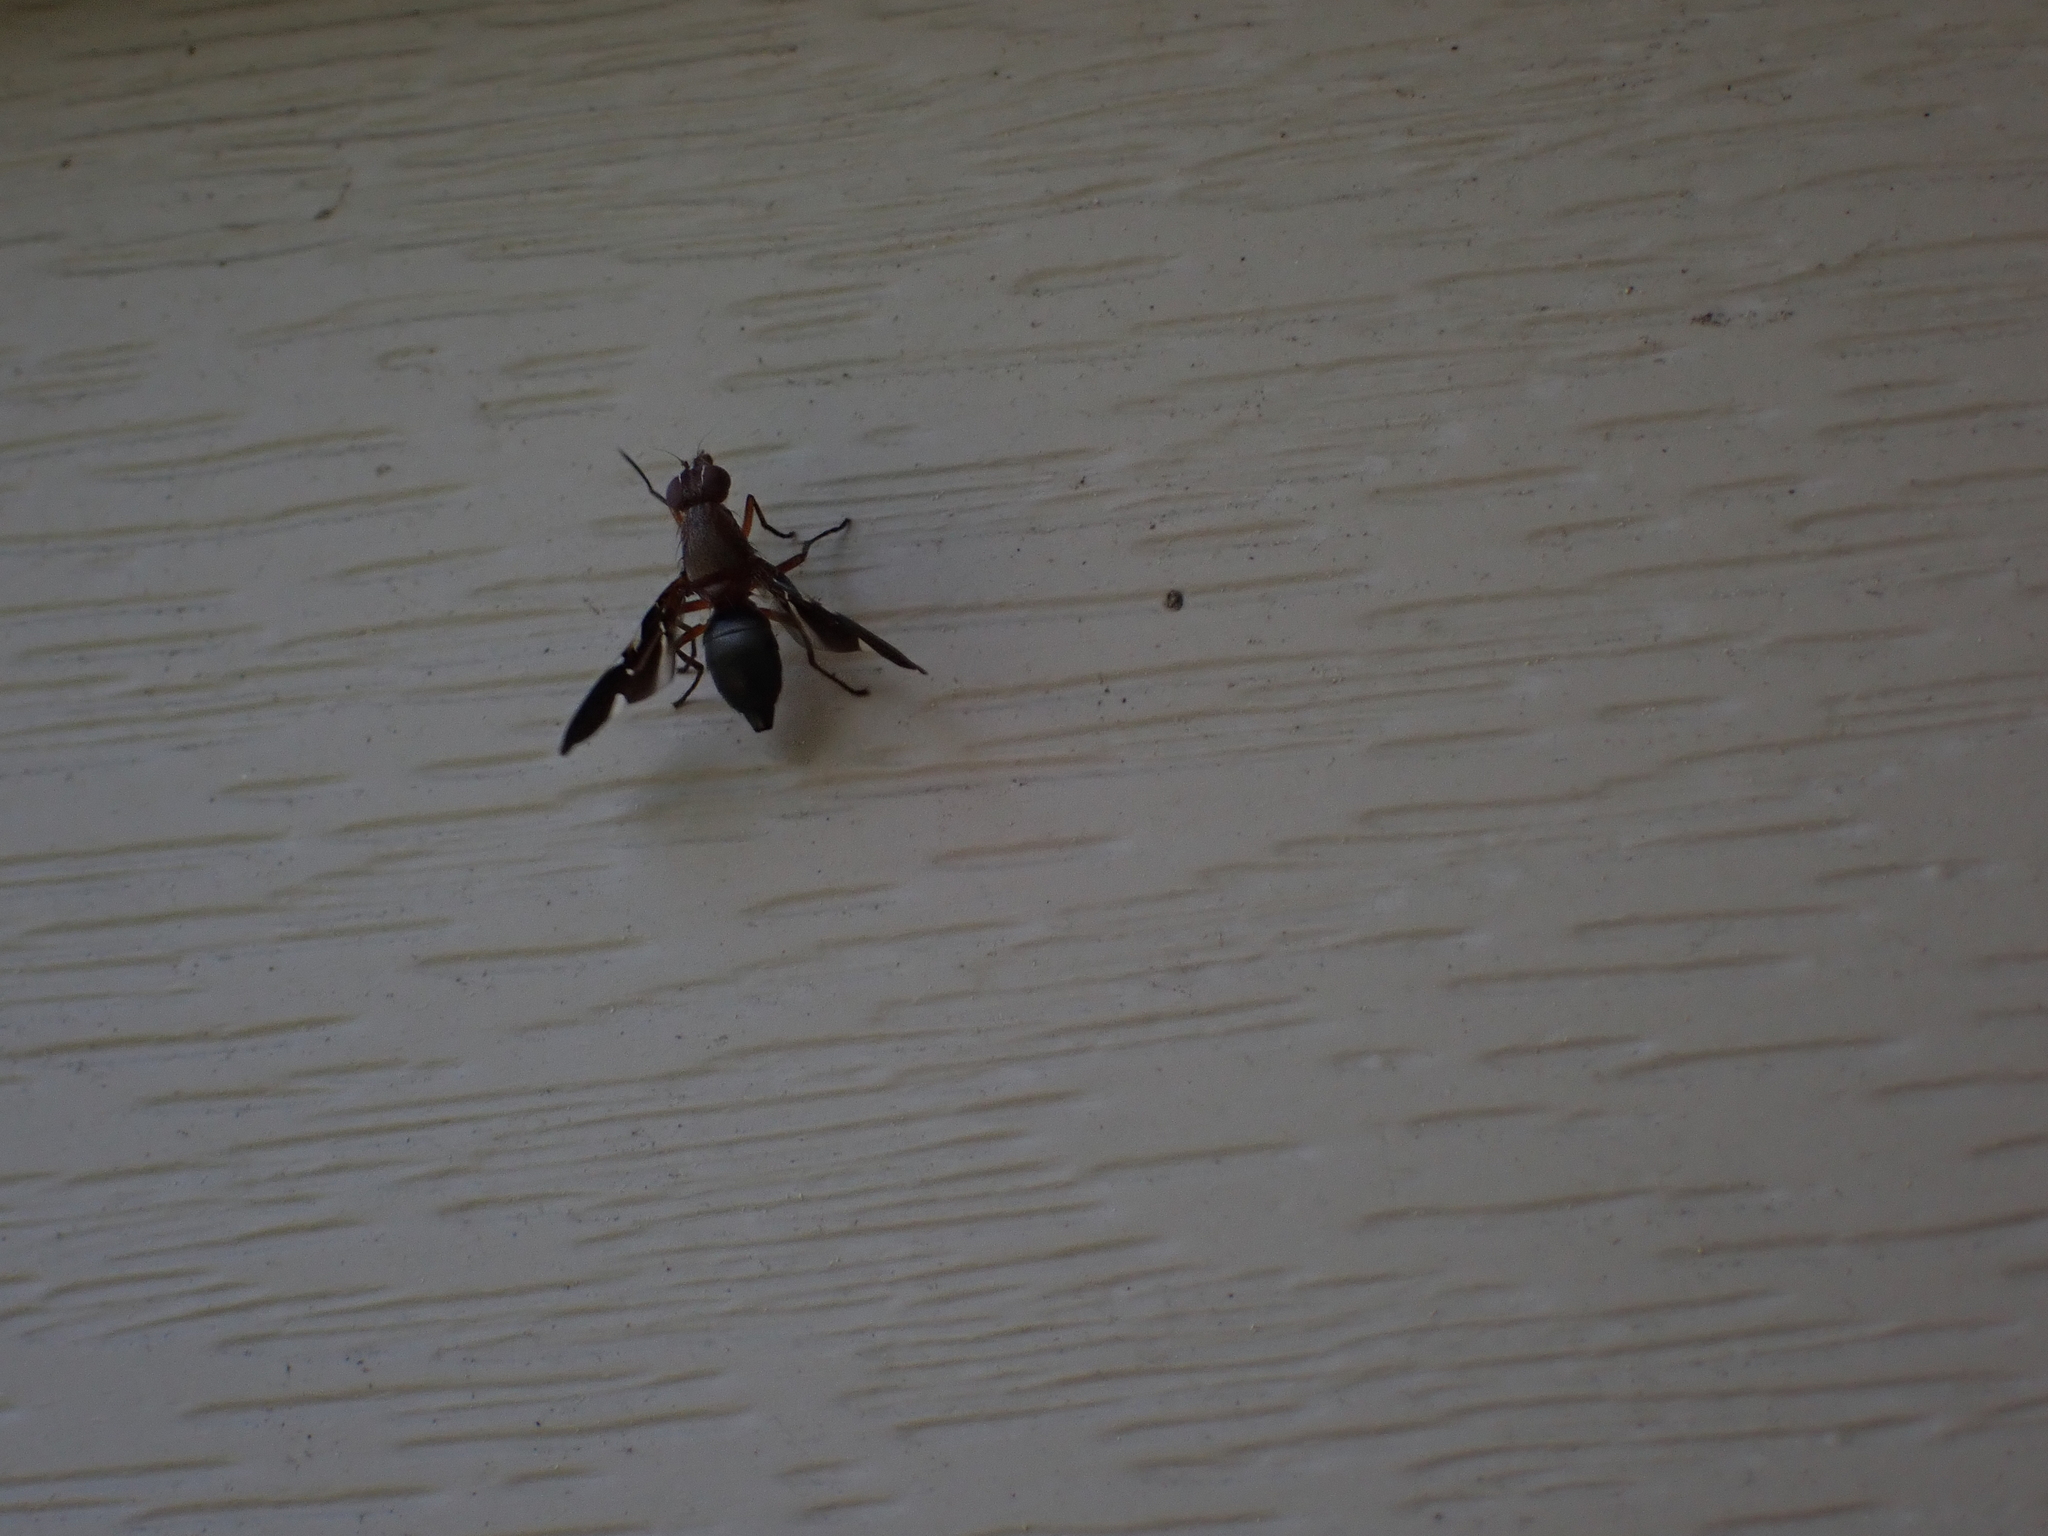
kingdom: Animalia
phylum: Arthropoda
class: Insecta
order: Diptera
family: Ulidiidae
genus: Delphinia
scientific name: Delphinia picta
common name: Common picture-winged fly
